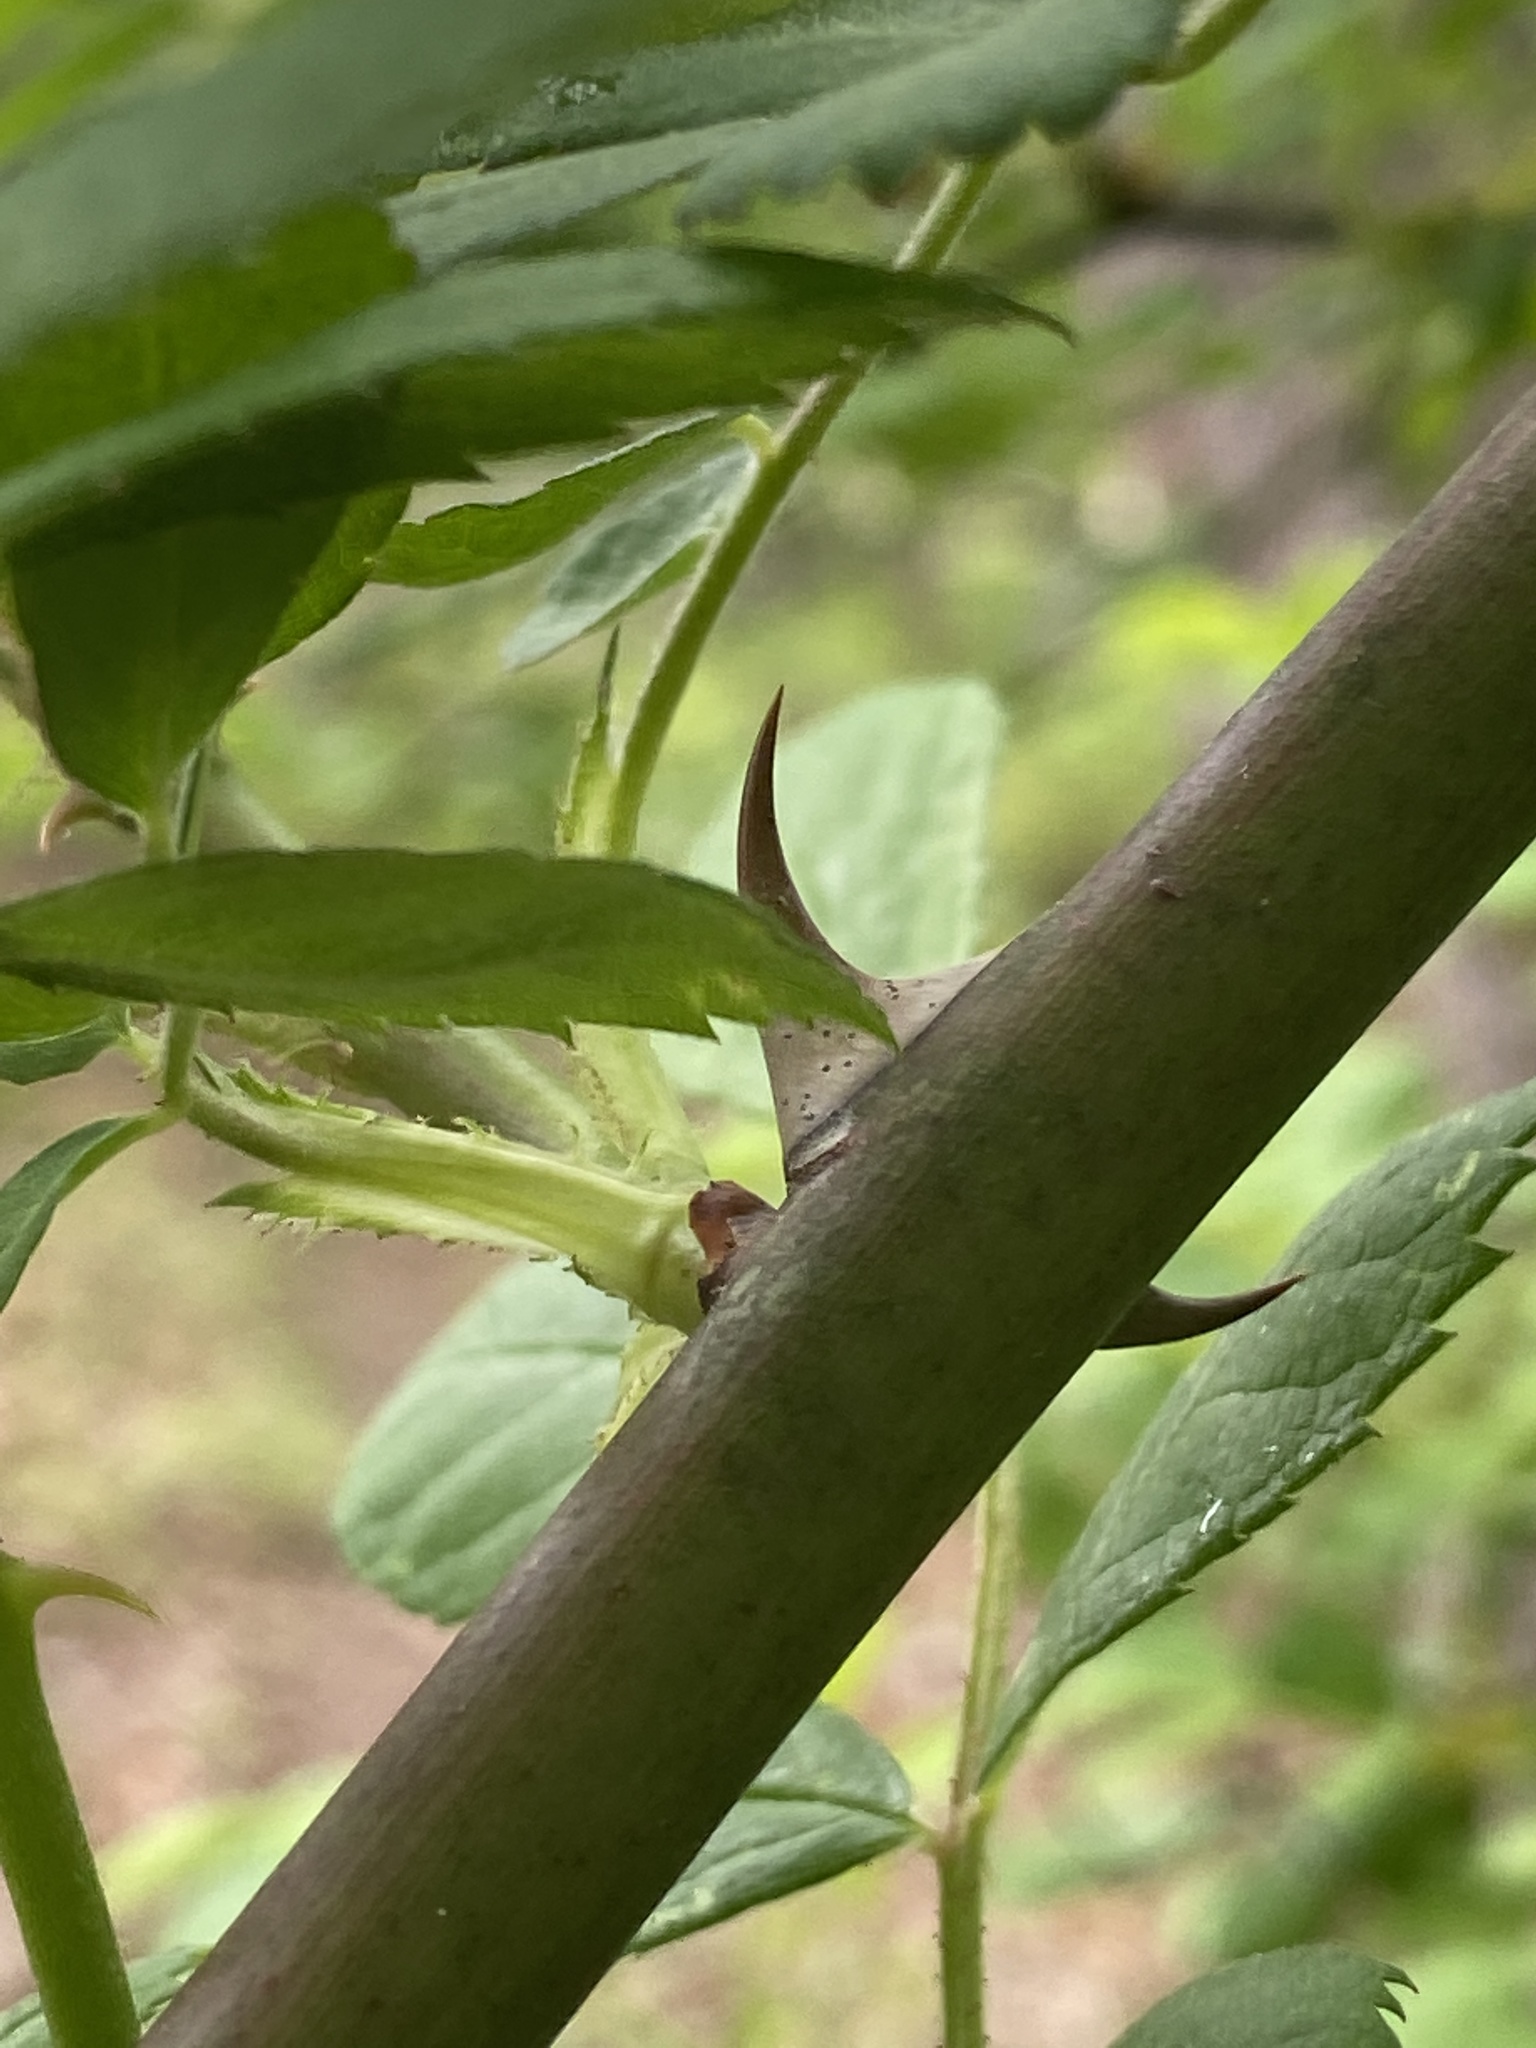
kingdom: Plantae
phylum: Tracheophyta
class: Magnoliopsida
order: Rosales
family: Rosaceae
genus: Rosa
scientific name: Rosa multiflora
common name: Multiflora rose
